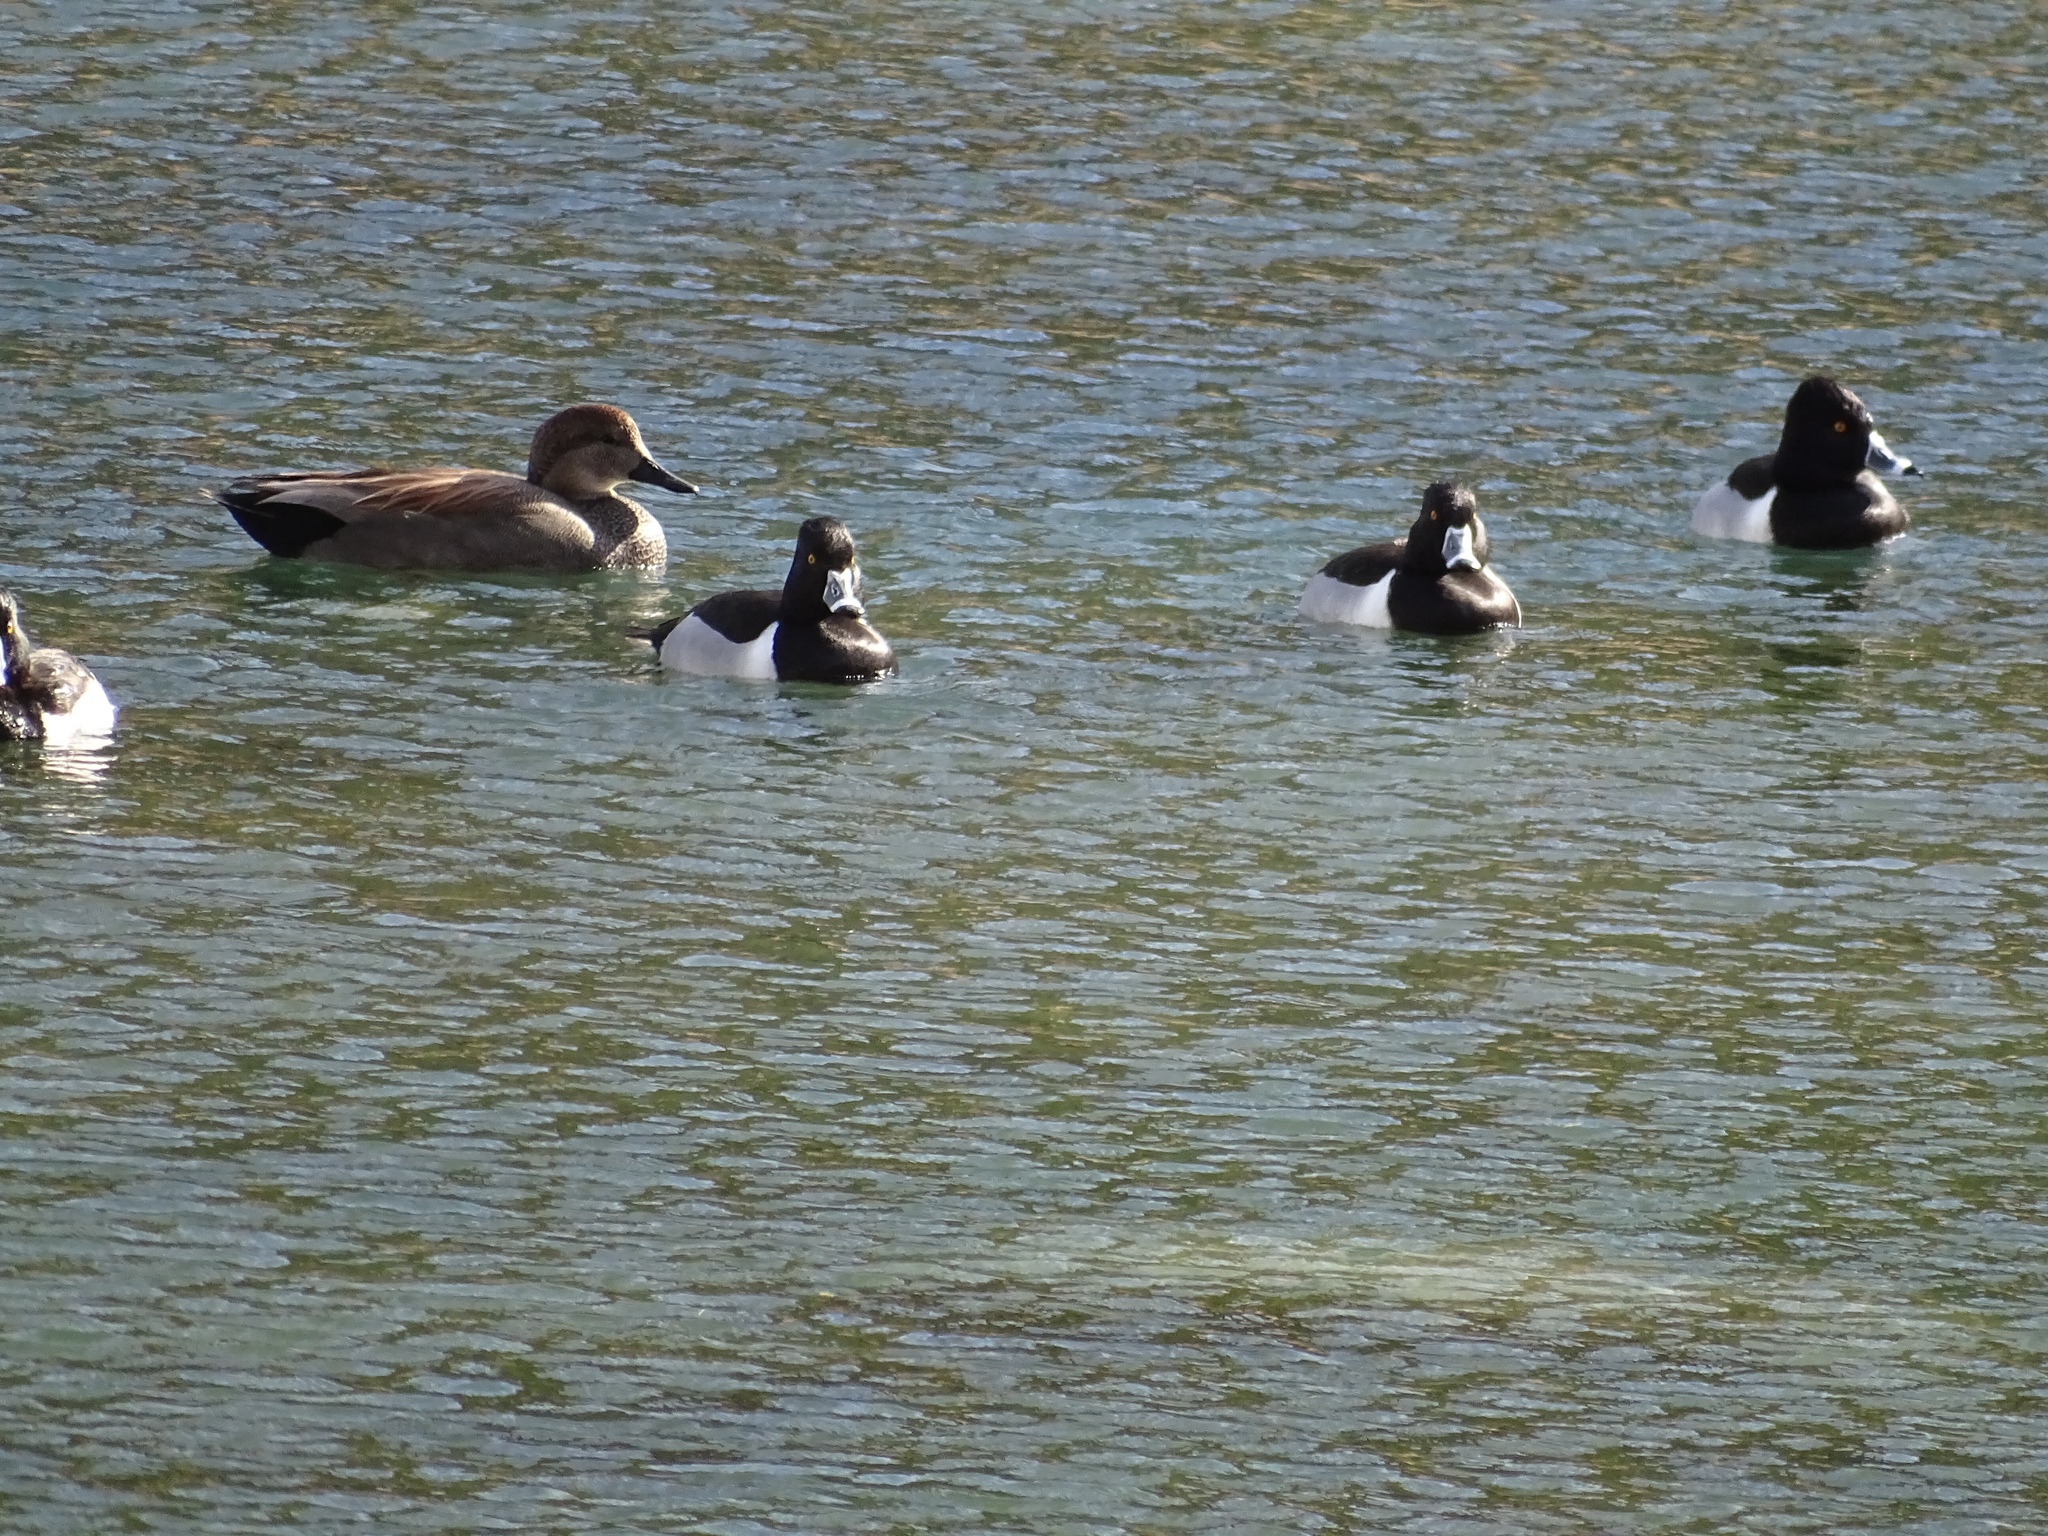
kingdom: Animalia
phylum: Chordata
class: Aves
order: Anseriformes
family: Anatidae
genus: Aythya
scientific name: Aythya collaris
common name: Ring-necked duck
